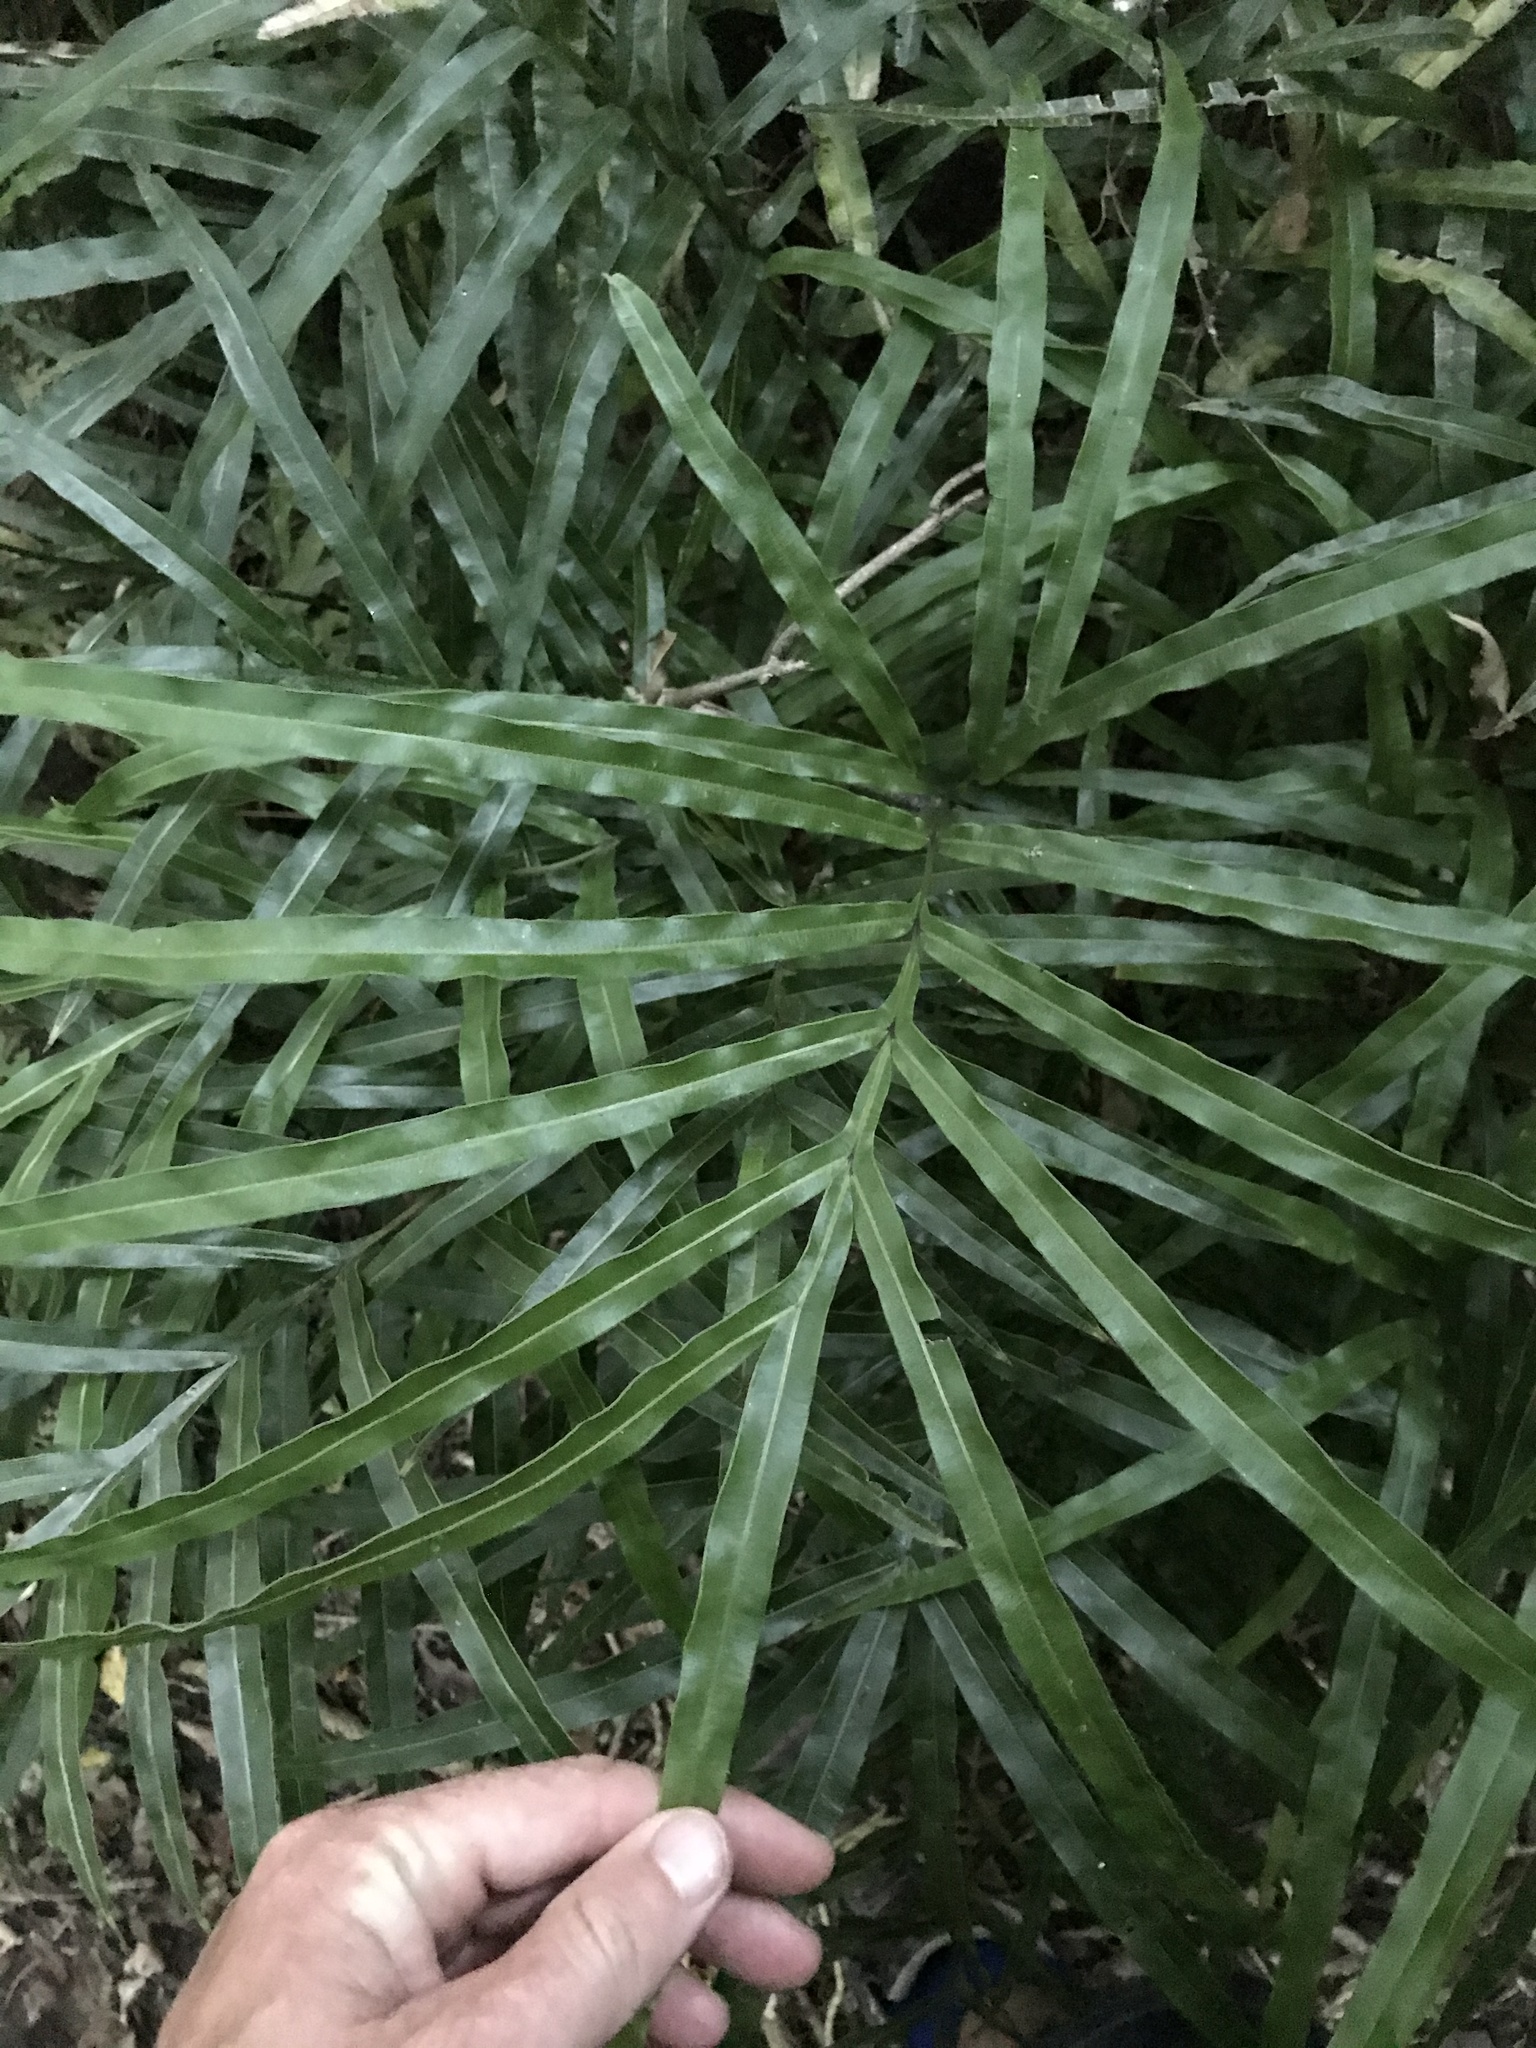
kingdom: Plantae
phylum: Tracheophyta
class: Polypodiopsida
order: Polypodiales
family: Pteridaceae
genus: Pteris
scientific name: Pteris cretica
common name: Ribbon fern
